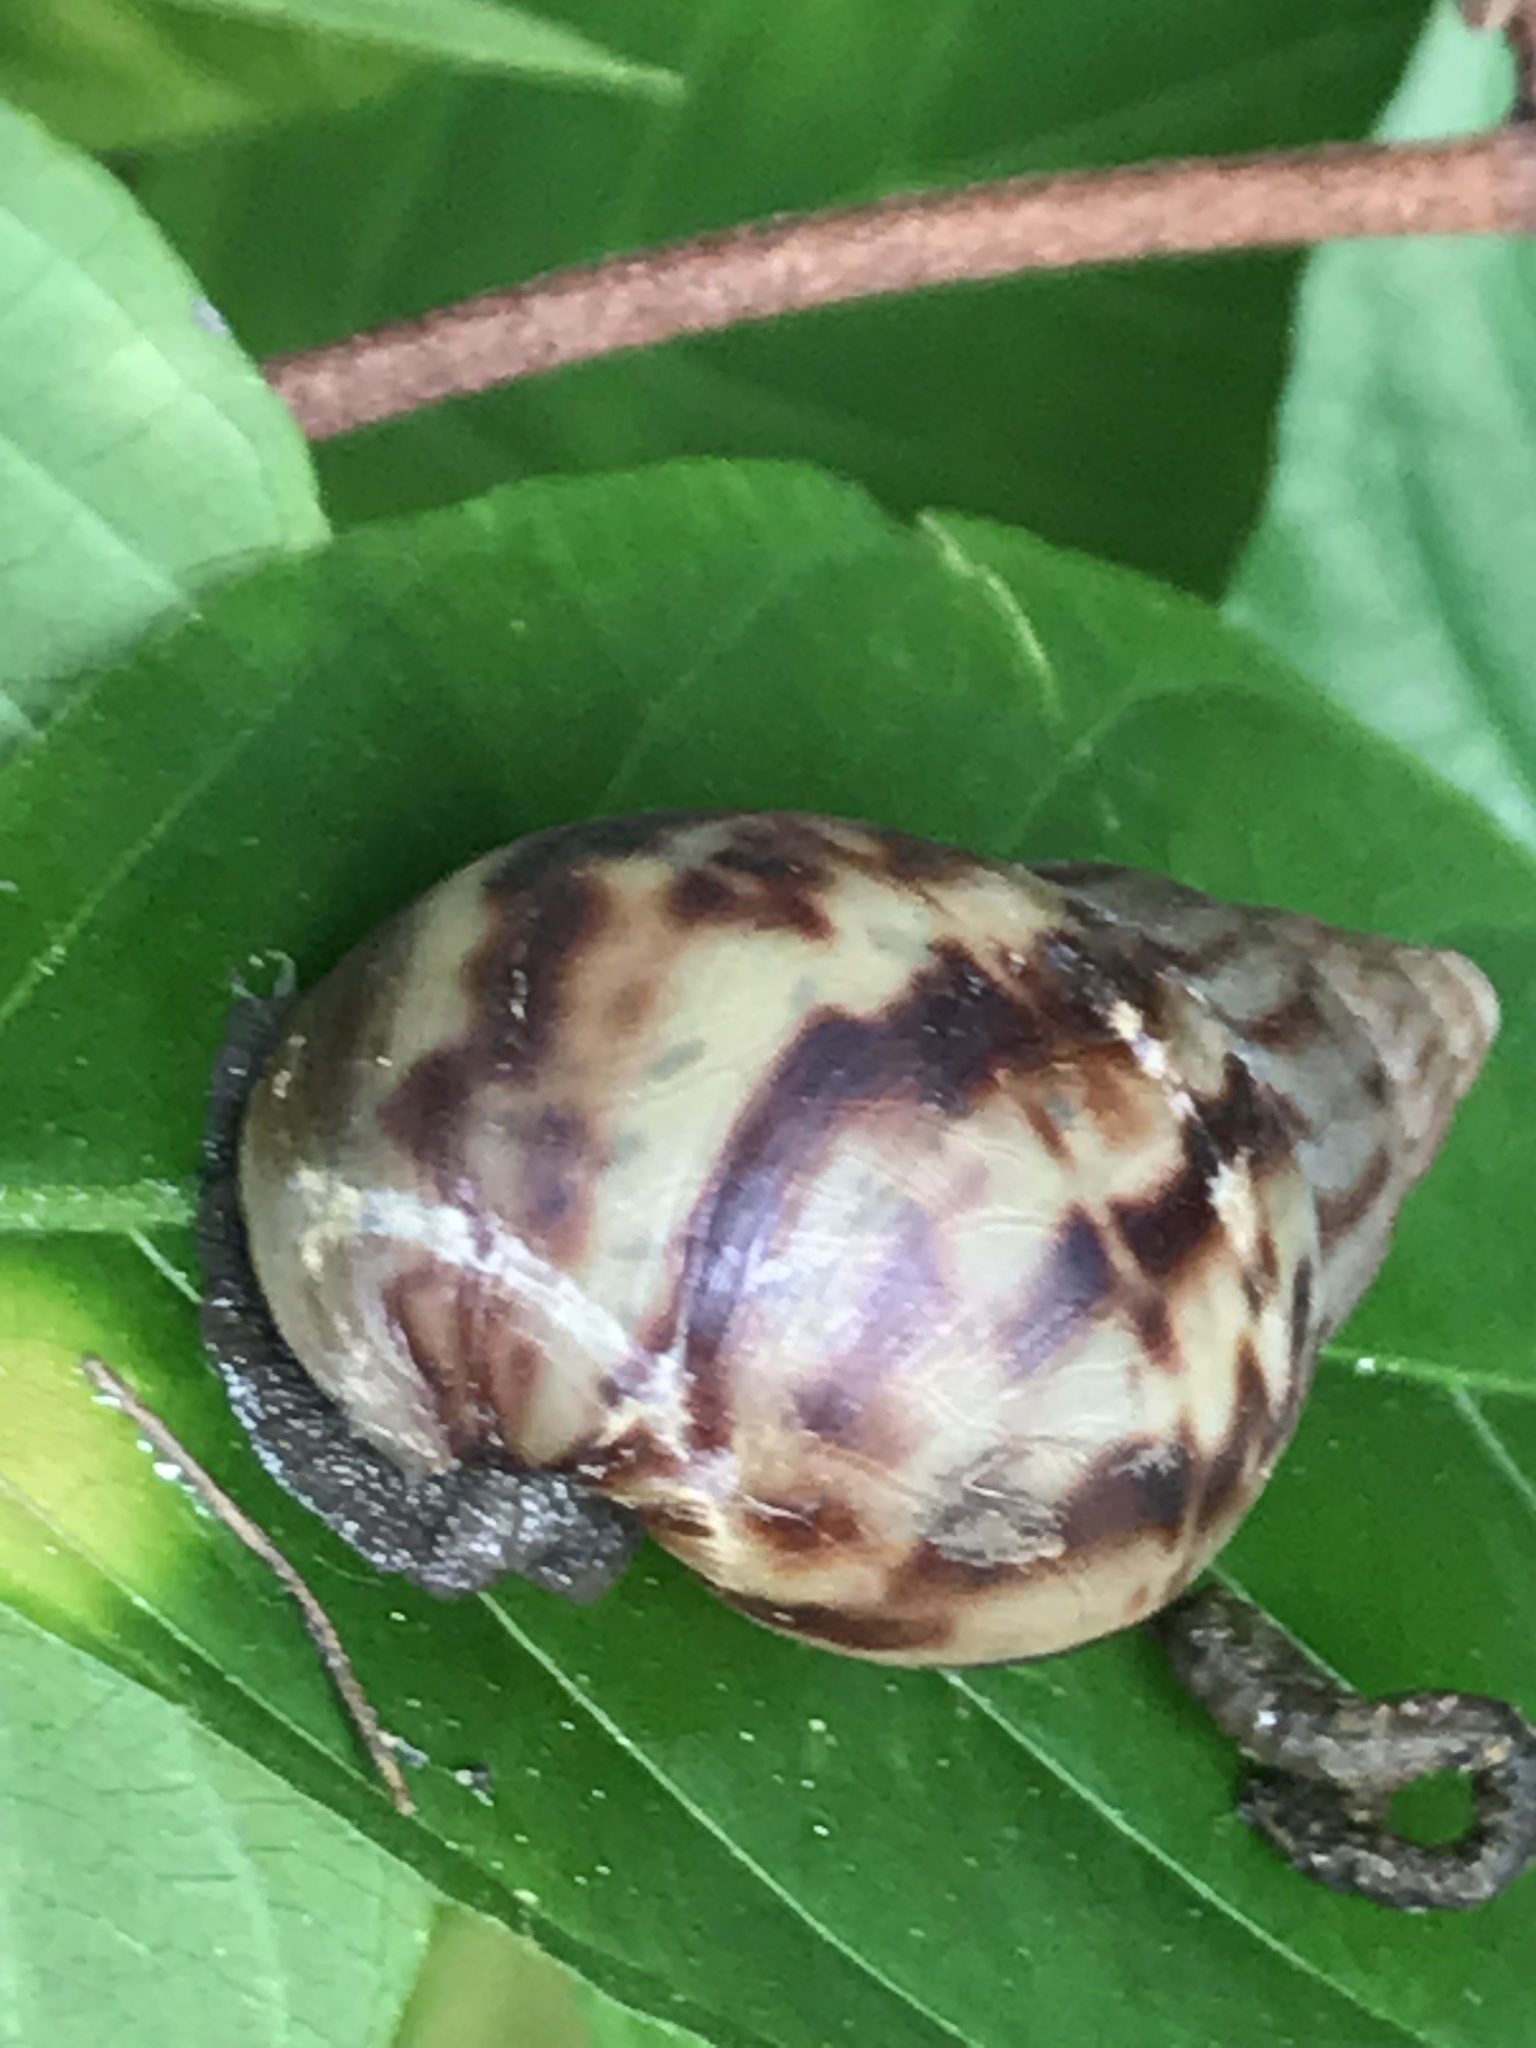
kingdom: Animalia
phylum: Mollusca
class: Gastropoda
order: Stylommatophora
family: Achatinidae
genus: Lissachatina
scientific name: Lissachatina fulica
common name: Giant african snail
